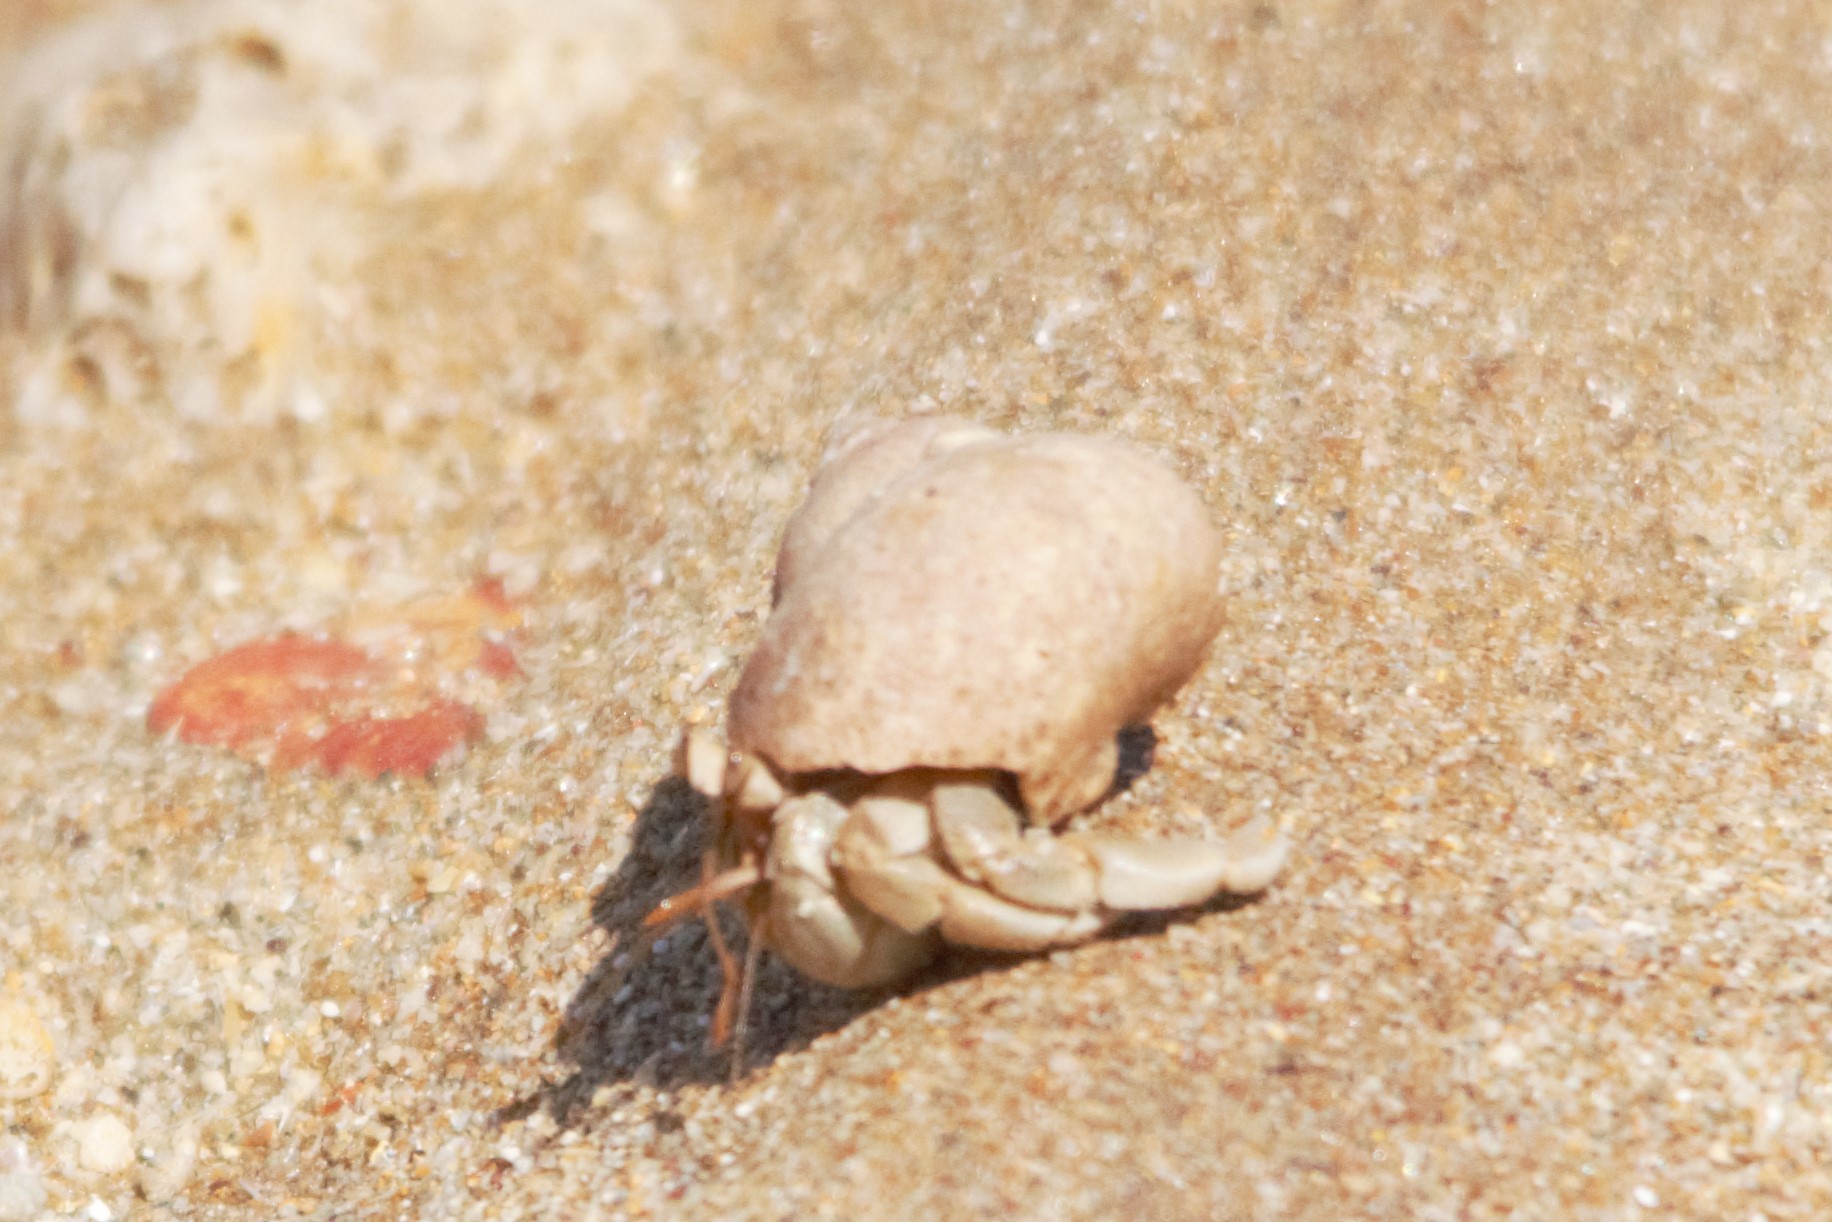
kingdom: Animalia
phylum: Arthropoda
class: Malacostraca
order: Decapoda
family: Coenobitidae
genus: Coenobita
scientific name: Coenobita variabilis
